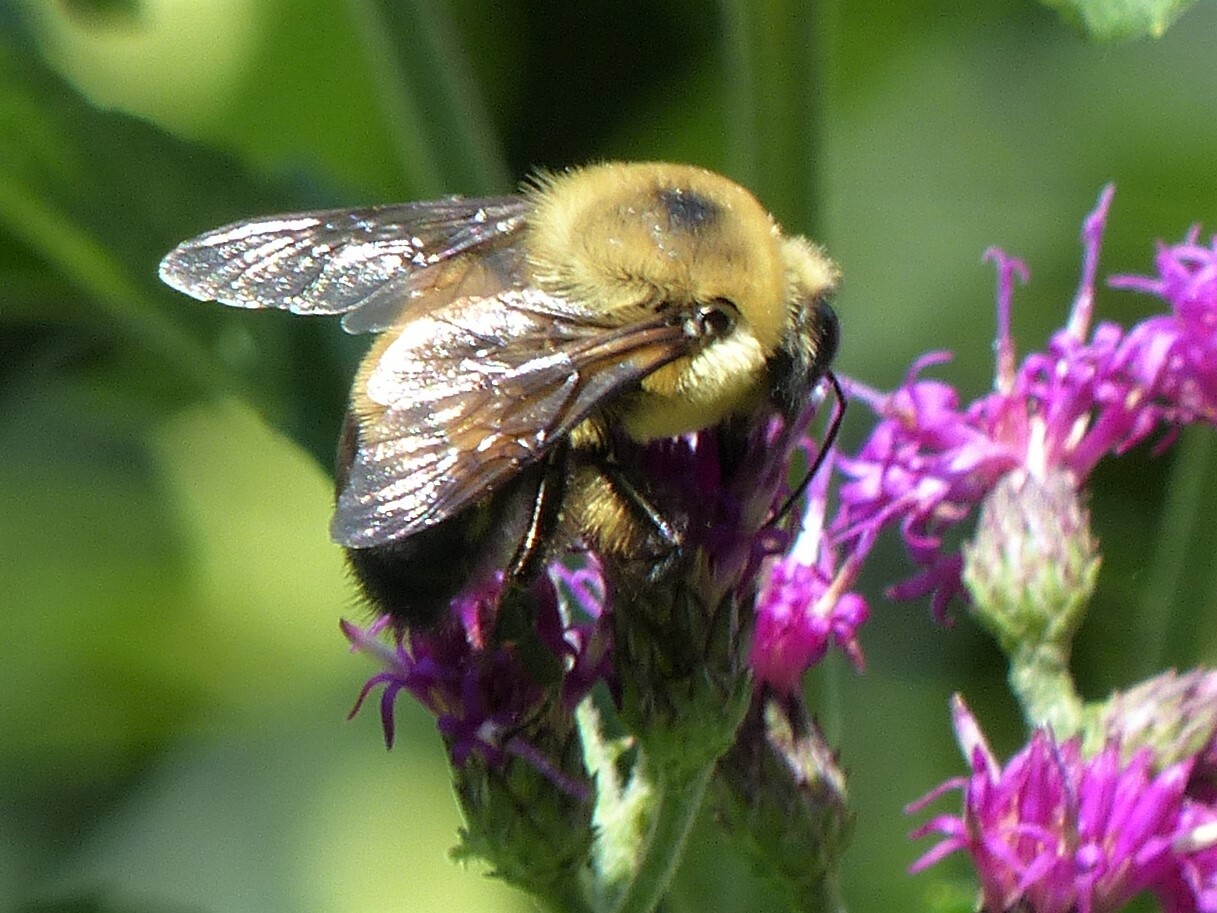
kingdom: Animalia
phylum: Arthropoda
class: Insecta
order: Hymenoptera
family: Apidae
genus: Bombus
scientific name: Bombus griseocollis
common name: Brown-belted bumble bee
